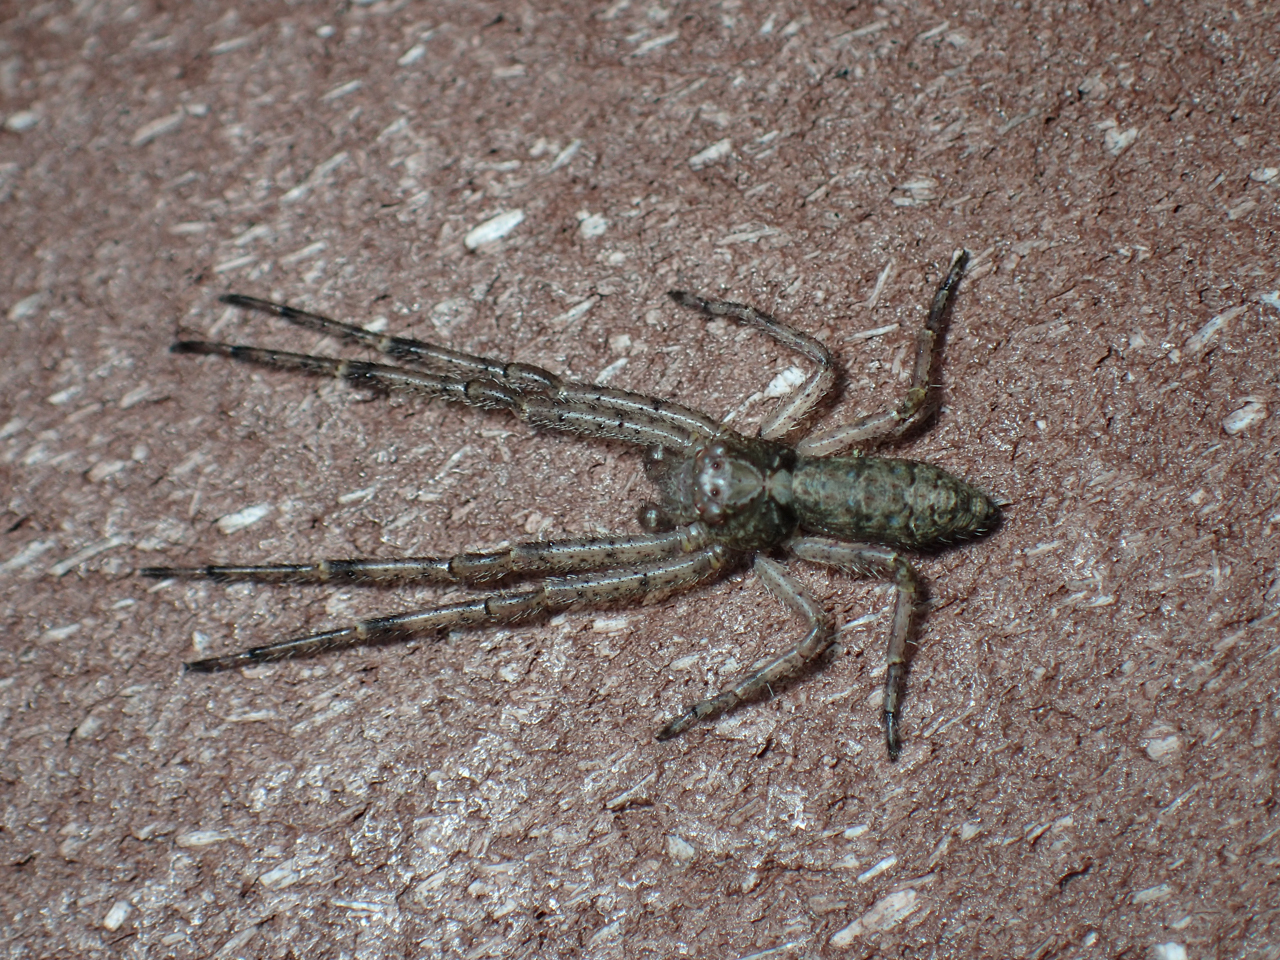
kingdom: Animalia
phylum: Arthropoda
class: Arachnida
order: Araneae
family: Thomisidae
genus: Tmarus
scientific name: Tmarus
